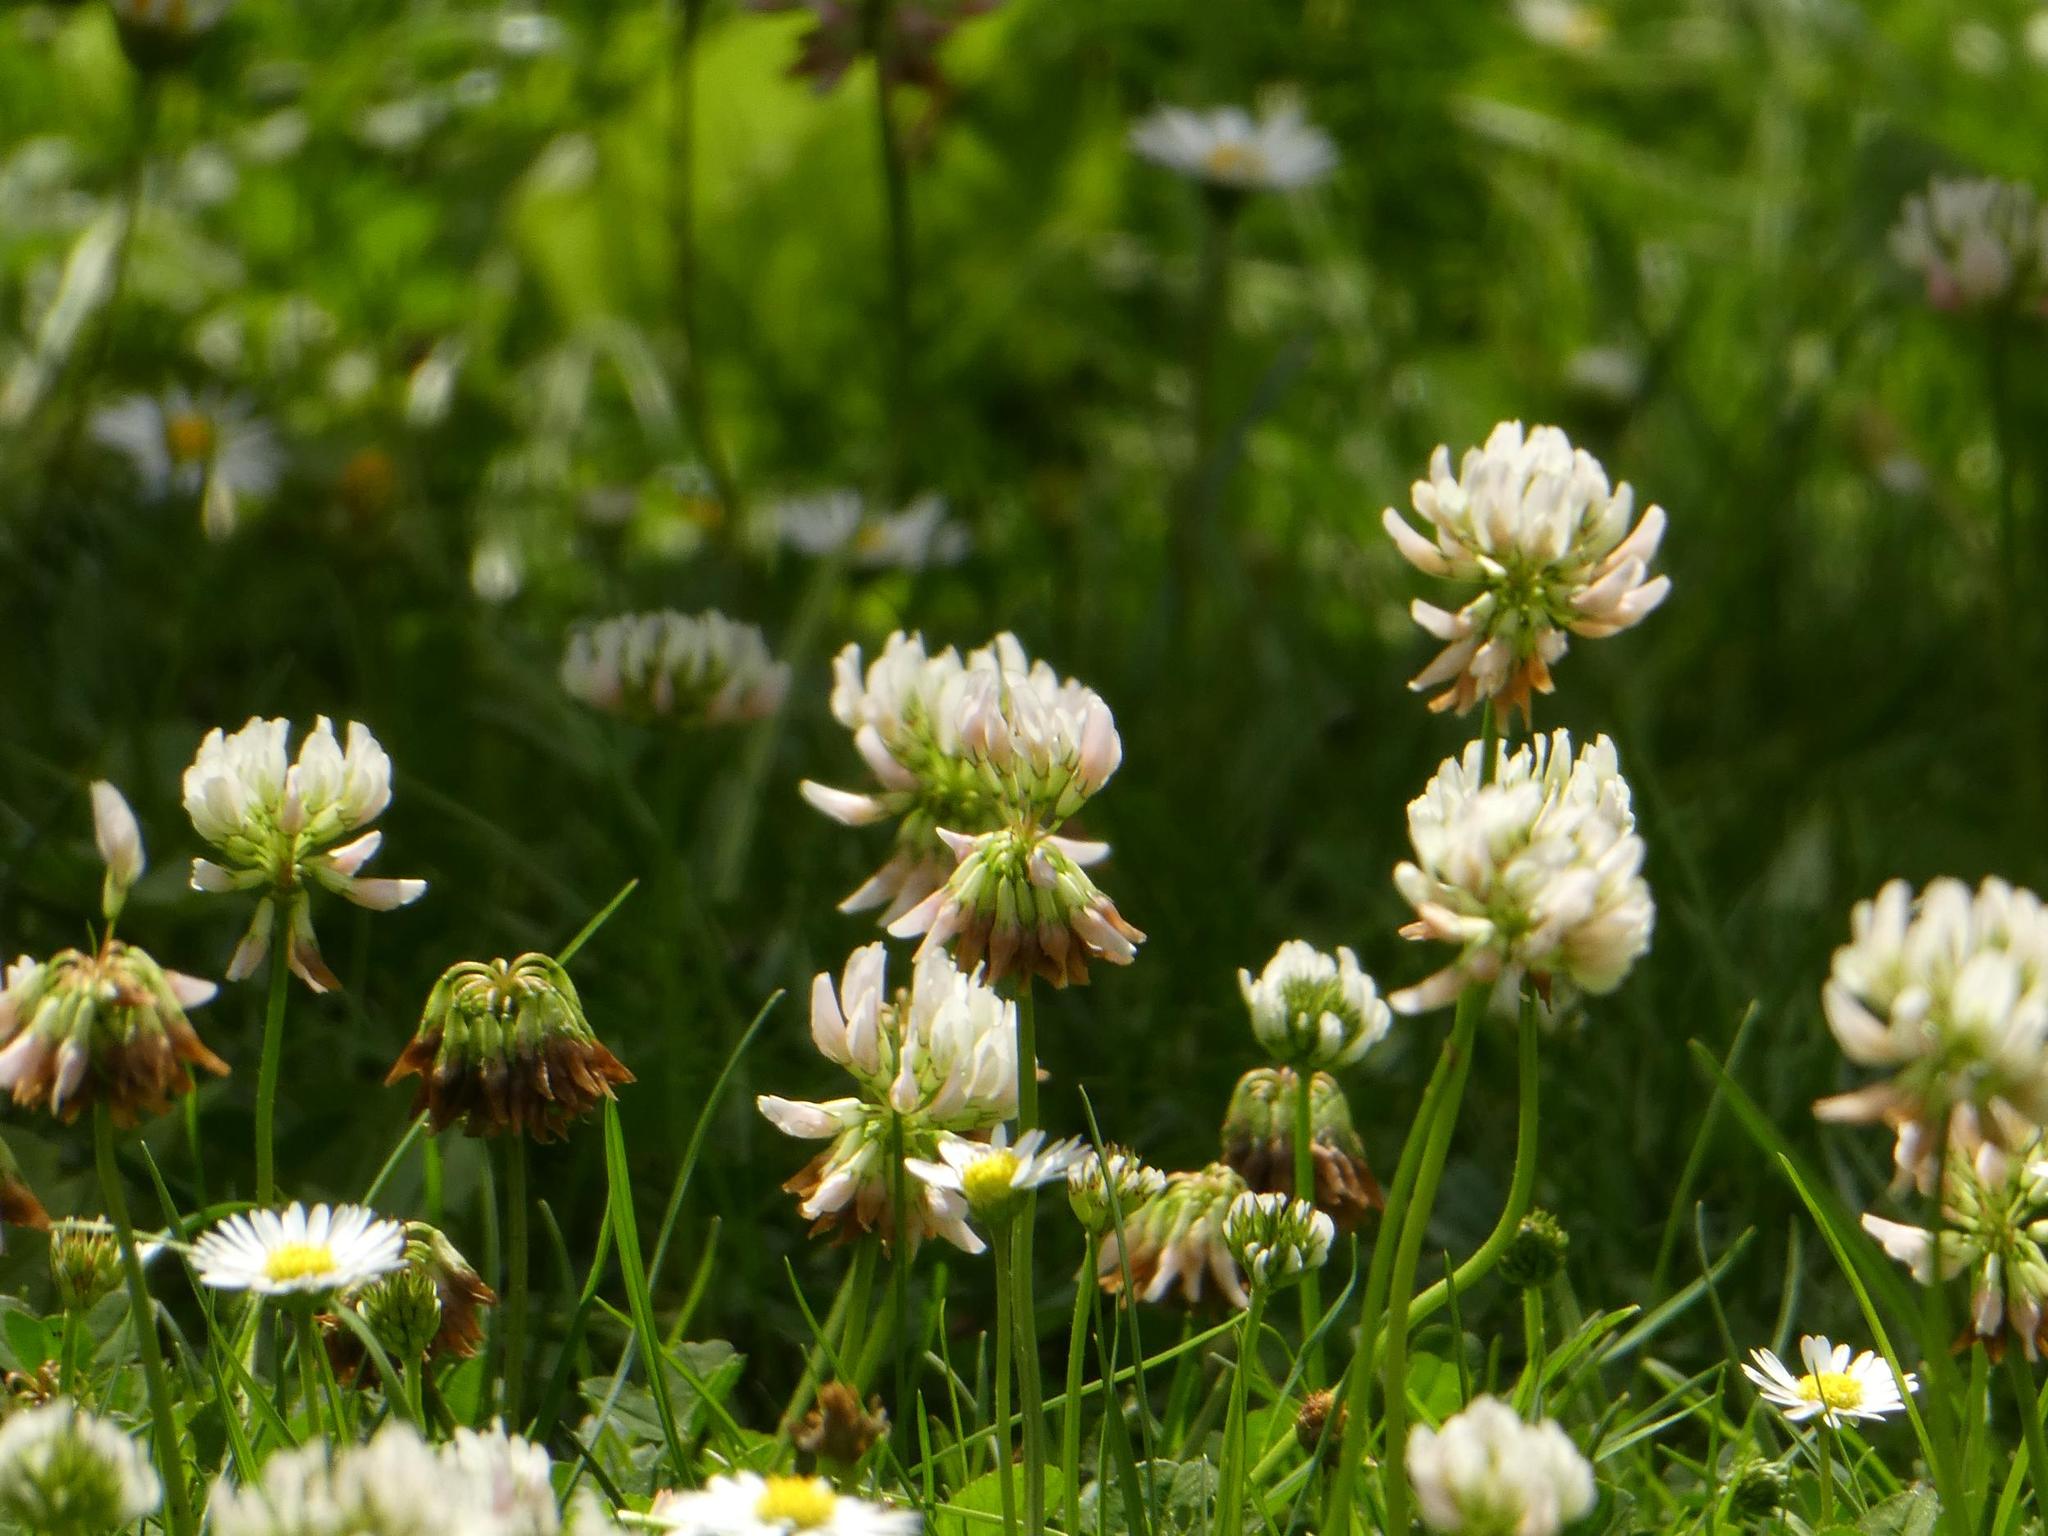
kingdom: Plantae
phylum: Tracheophyta
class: Magnoliopsida
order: Fabales
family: Fabaceae
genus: Trifolium
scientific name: Trifolium repens
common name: White clover
